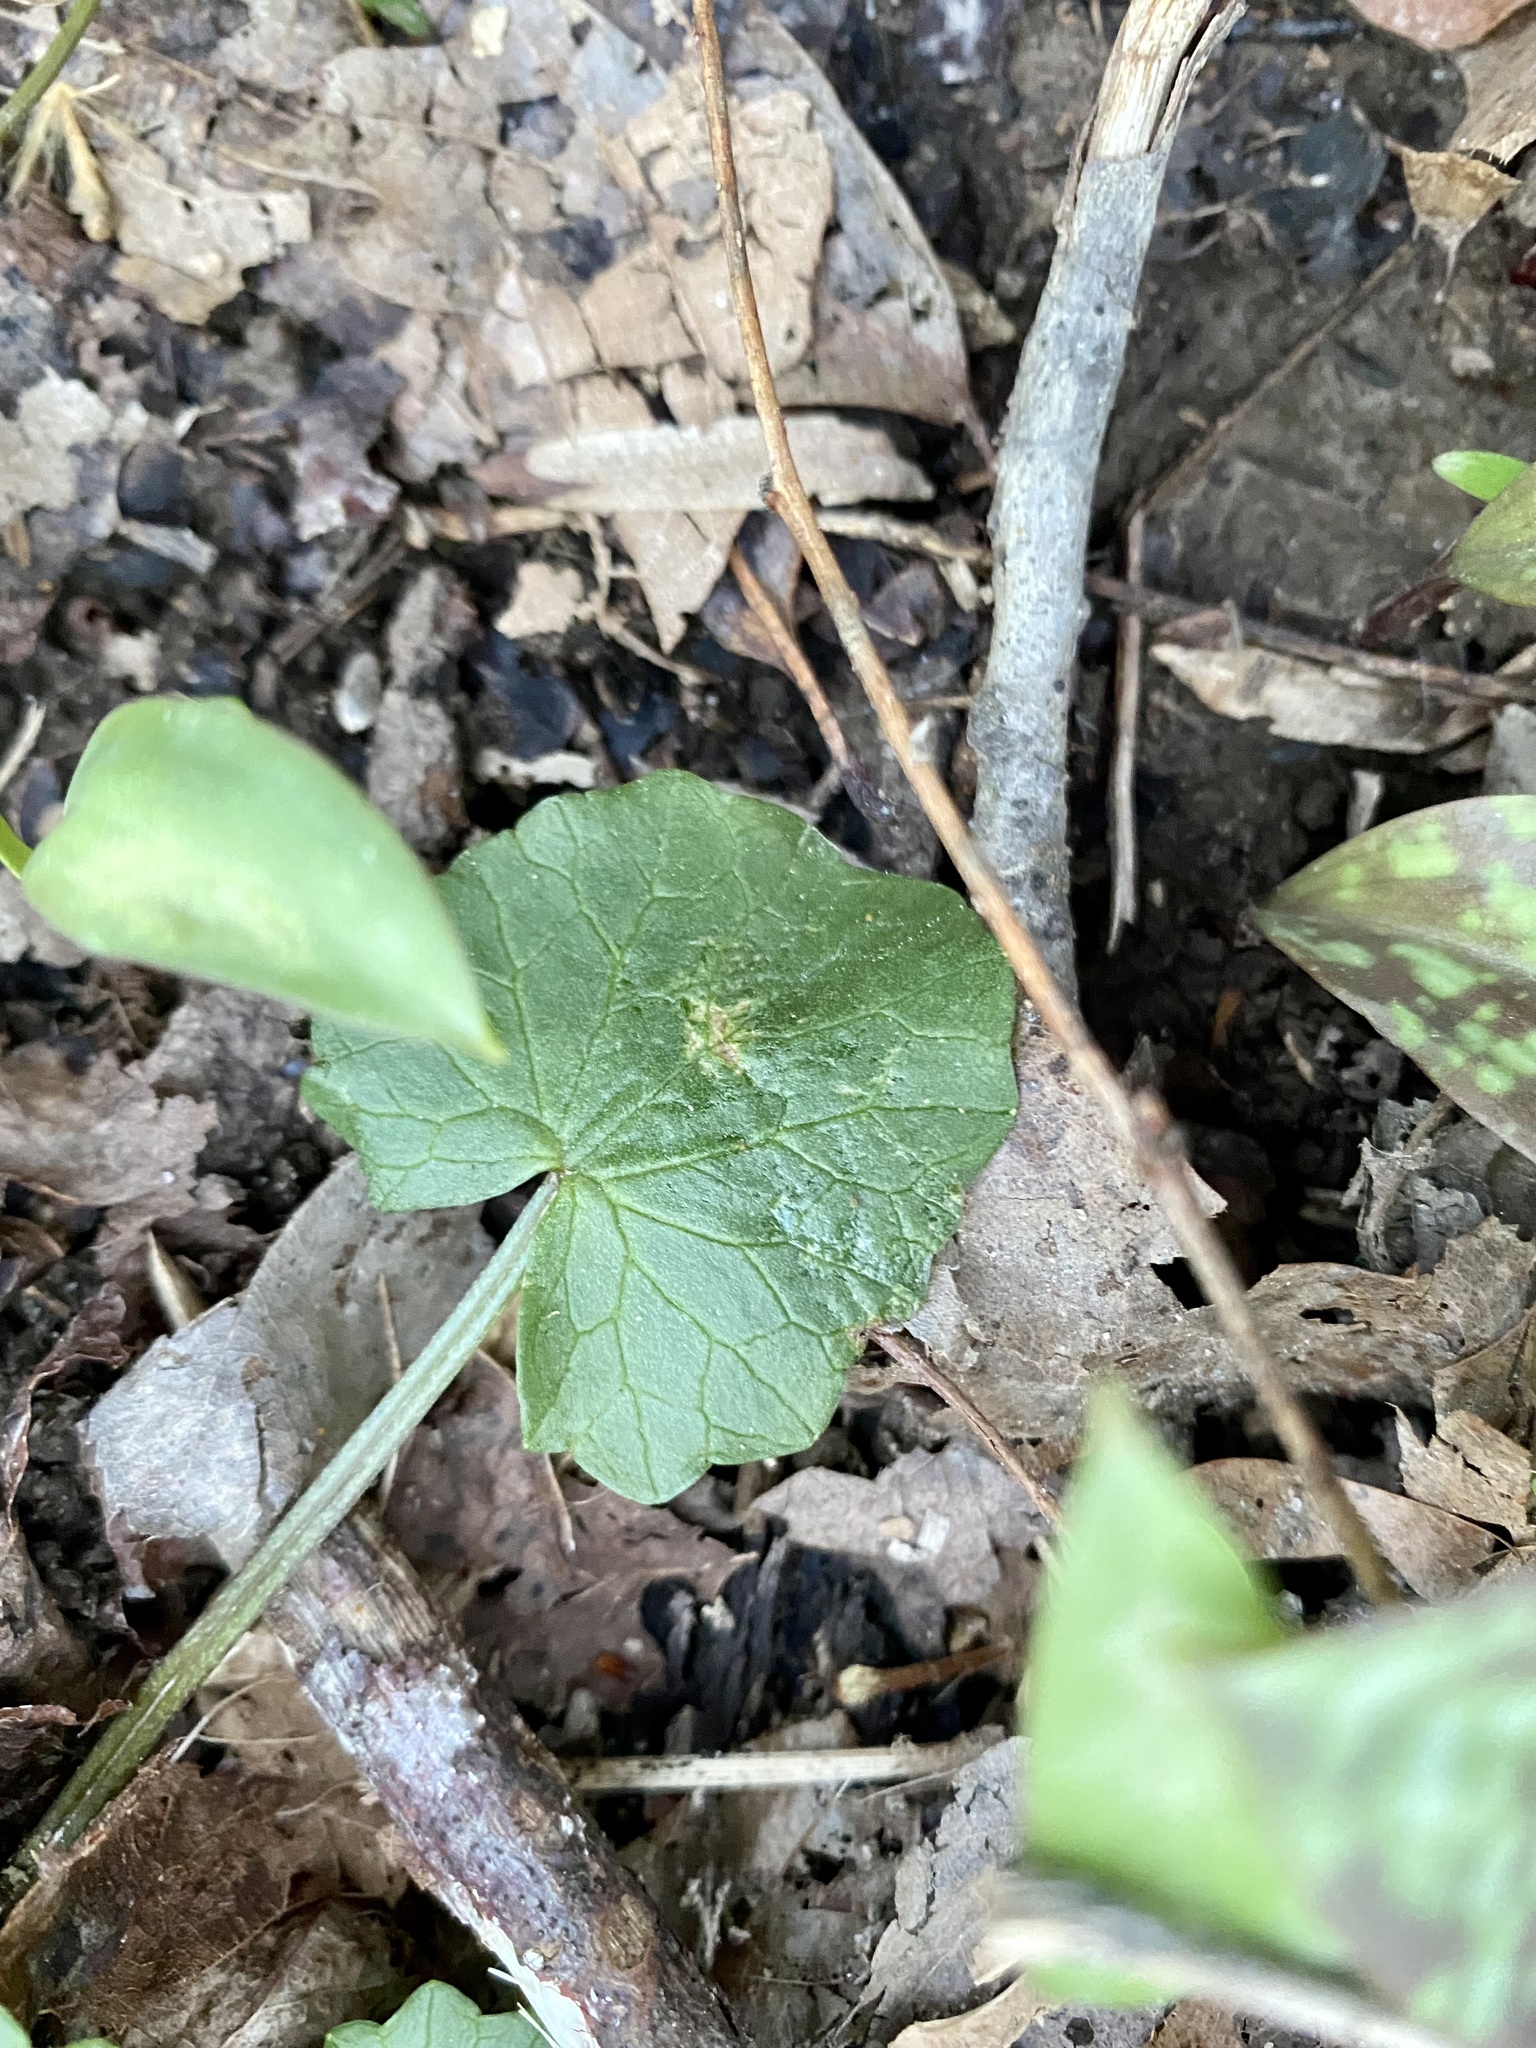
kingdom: Plantae
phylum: Tracheophyta
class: Magnoliopsida
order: Ranunculales
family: Ranunculaceae
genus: Ficaria
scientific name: Ficaria verna
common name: Lesser celandine
